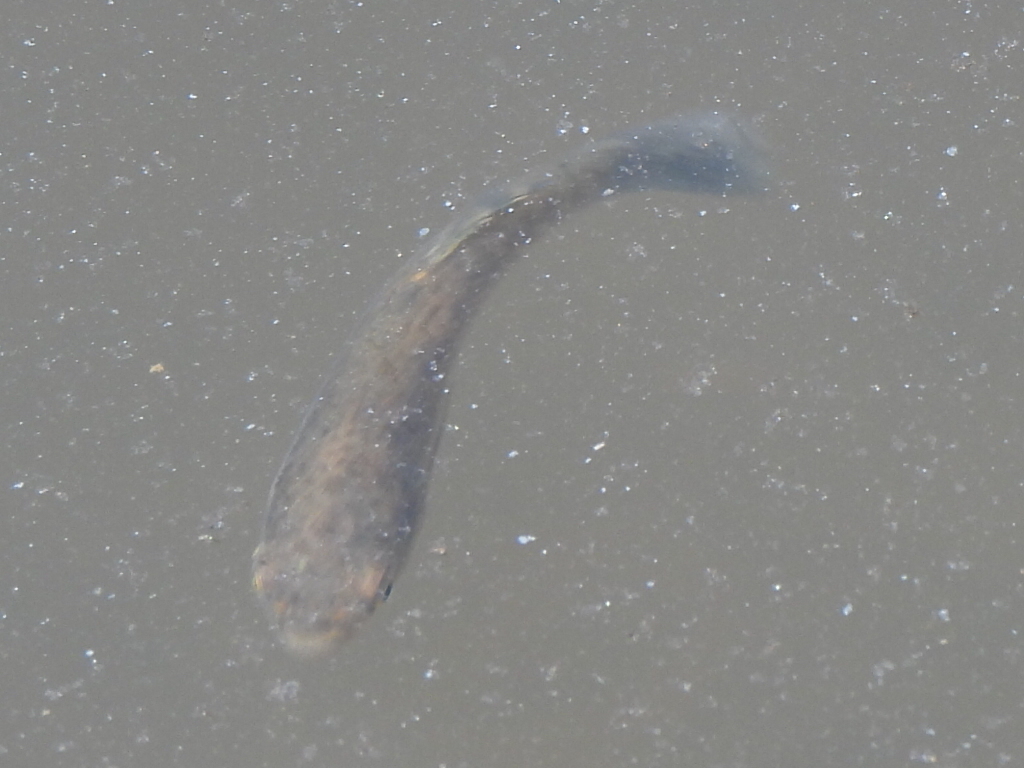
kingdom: Animalia
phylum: Chordata
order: Cyprinodontiformes
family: Fundulidae
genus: Fundulus
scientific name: Fundulus heteroclitus
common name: Mummichog
